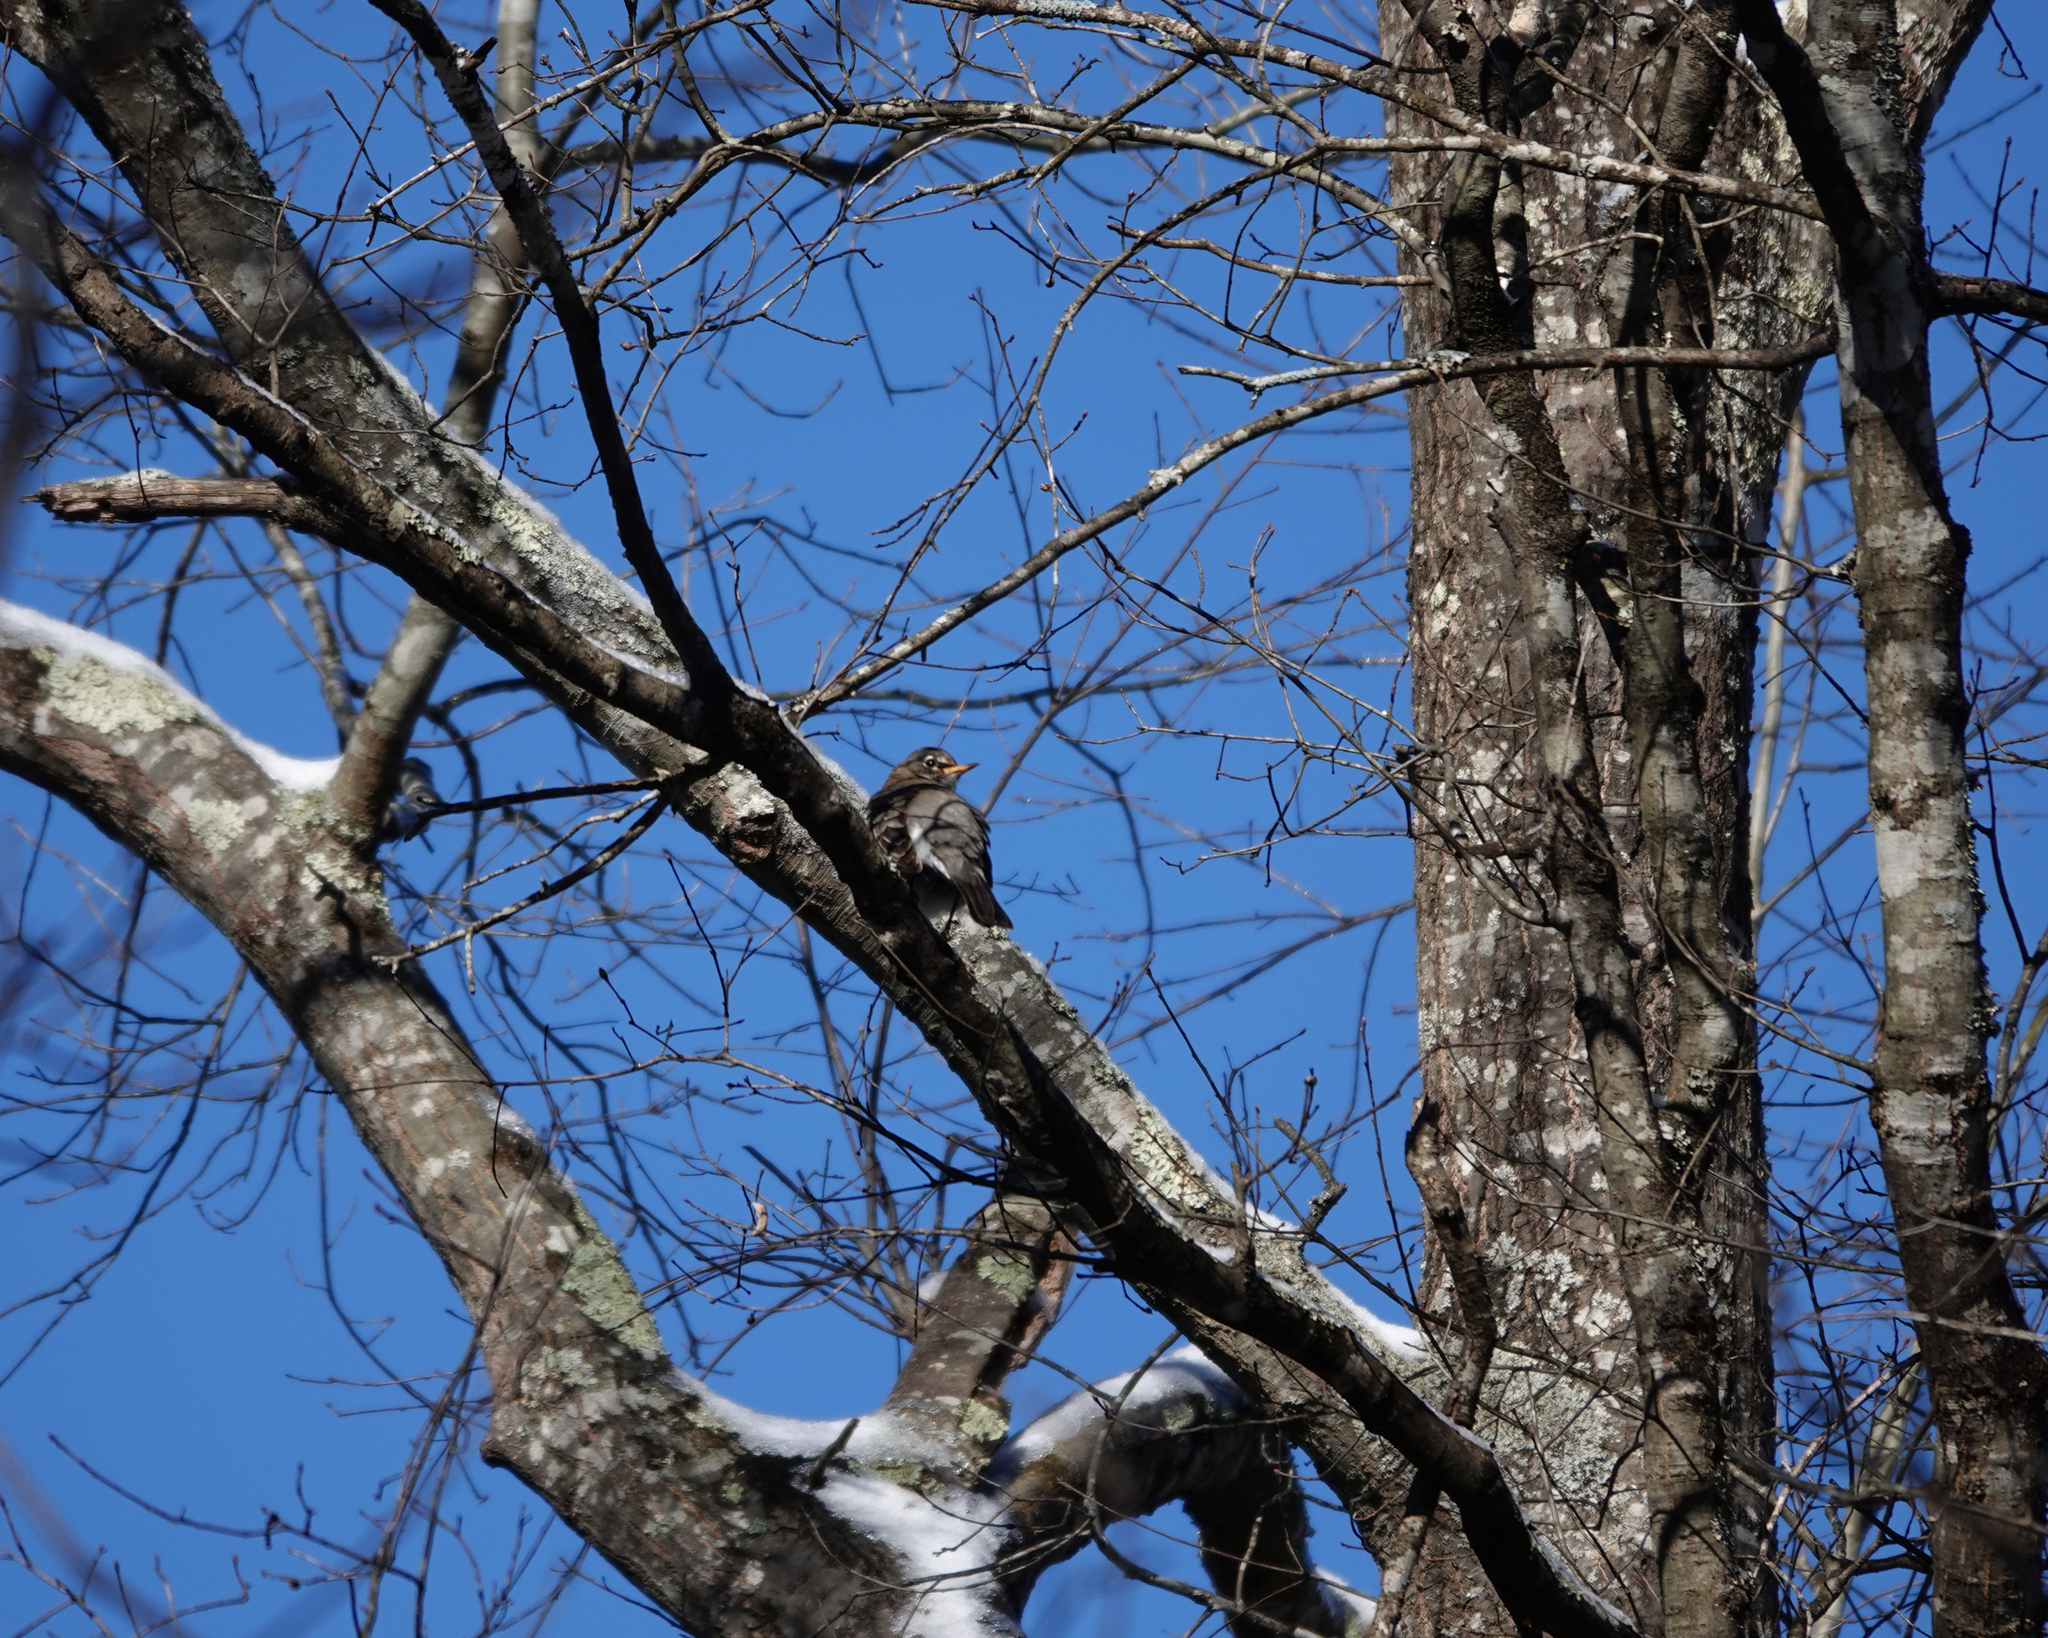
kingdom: Animalia
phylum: Chordata
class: Aves
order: Passeriformes
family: Turdidae
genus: Turdus
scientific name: Turdus migratorius
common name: American robin
